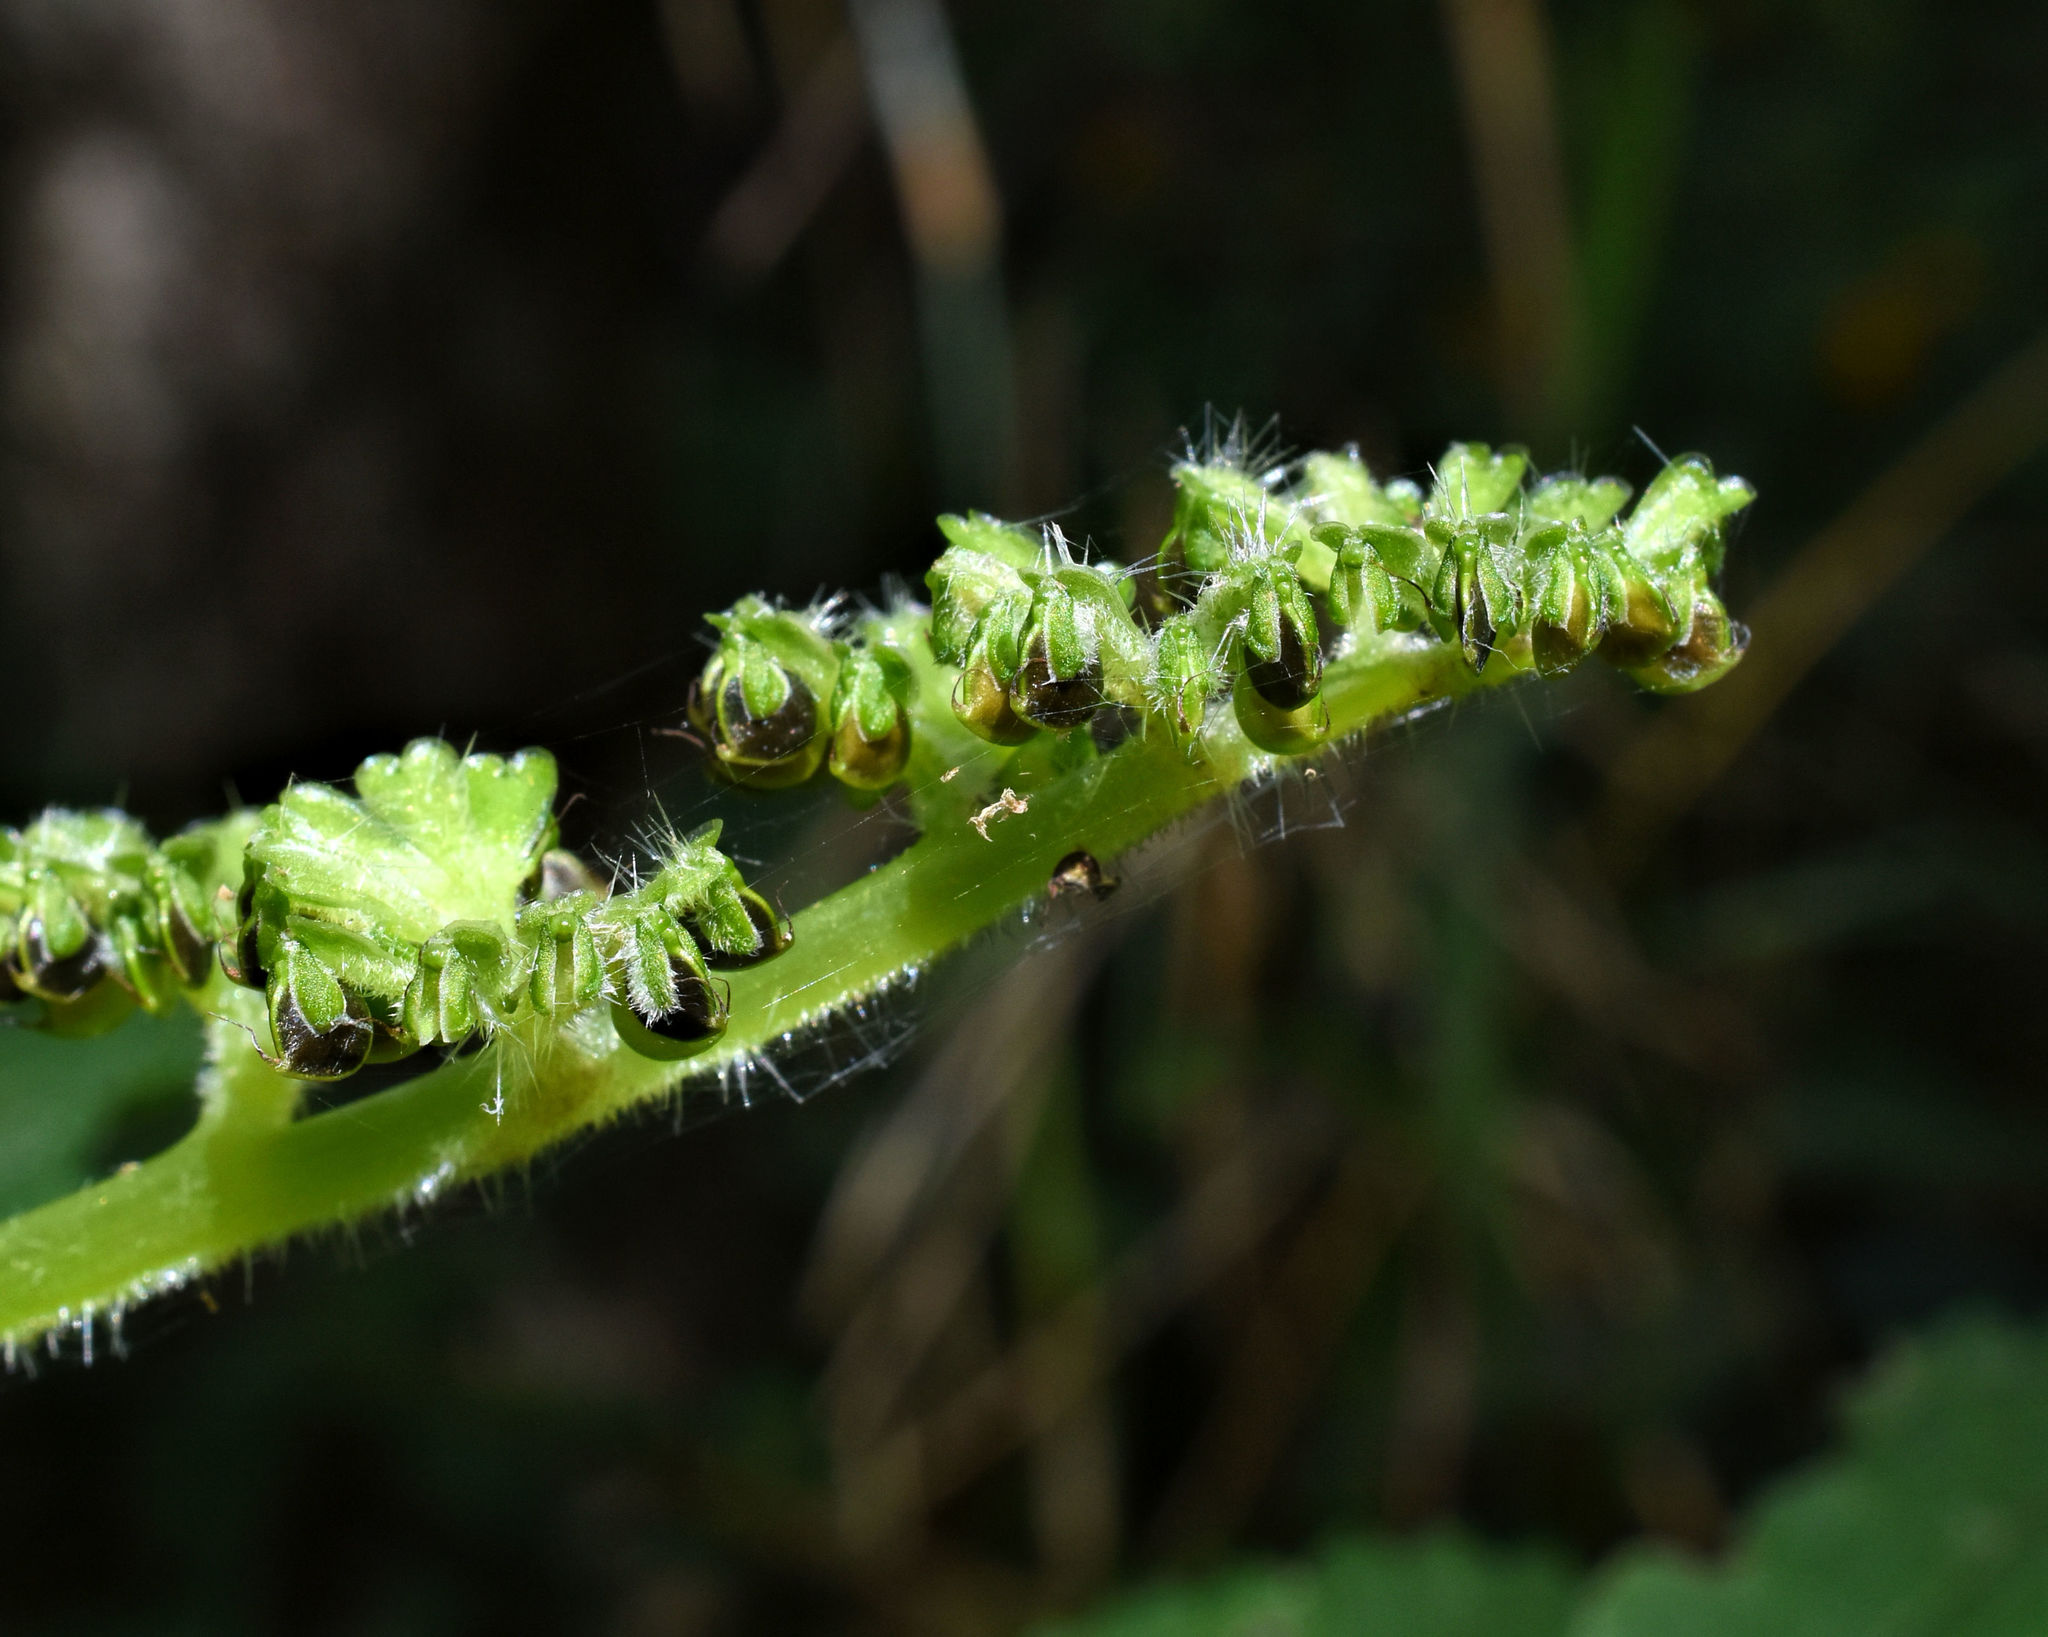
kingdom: Plantae
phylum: Tracheophyta
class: Magnoliopsida
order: Rosales
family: Urticaceae
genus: Laportea
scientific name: Laportea canadensis
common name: Canada nettle
